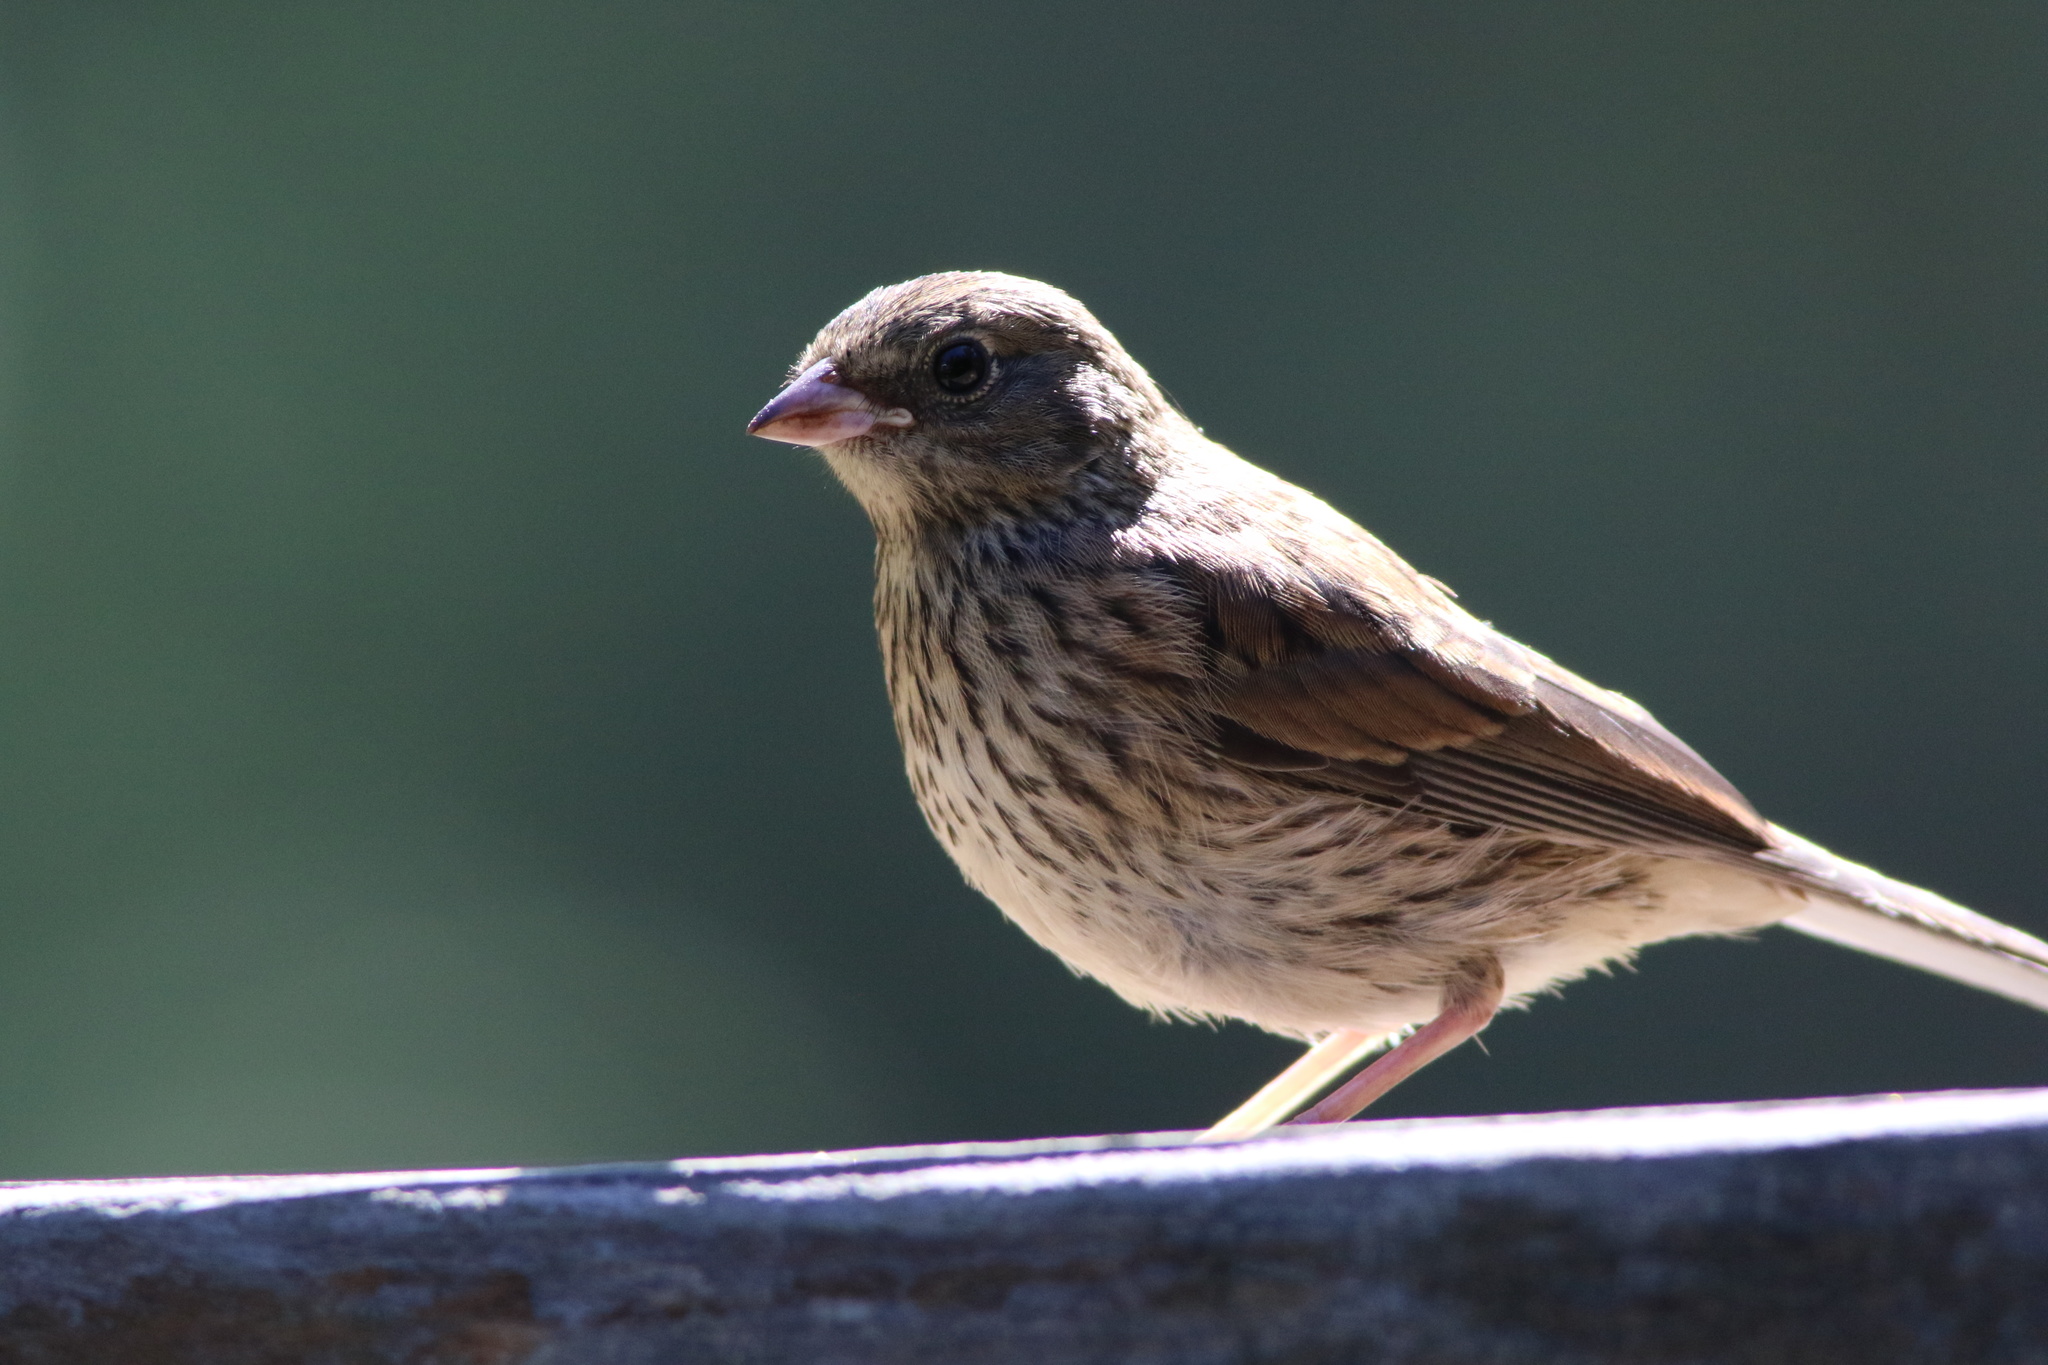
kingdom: Animalia
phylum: Chordata
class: Aves
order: Passeriformes
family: Passerellidae
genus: Junco
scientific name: Junco hyemalis
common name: Dark-eyed junco
